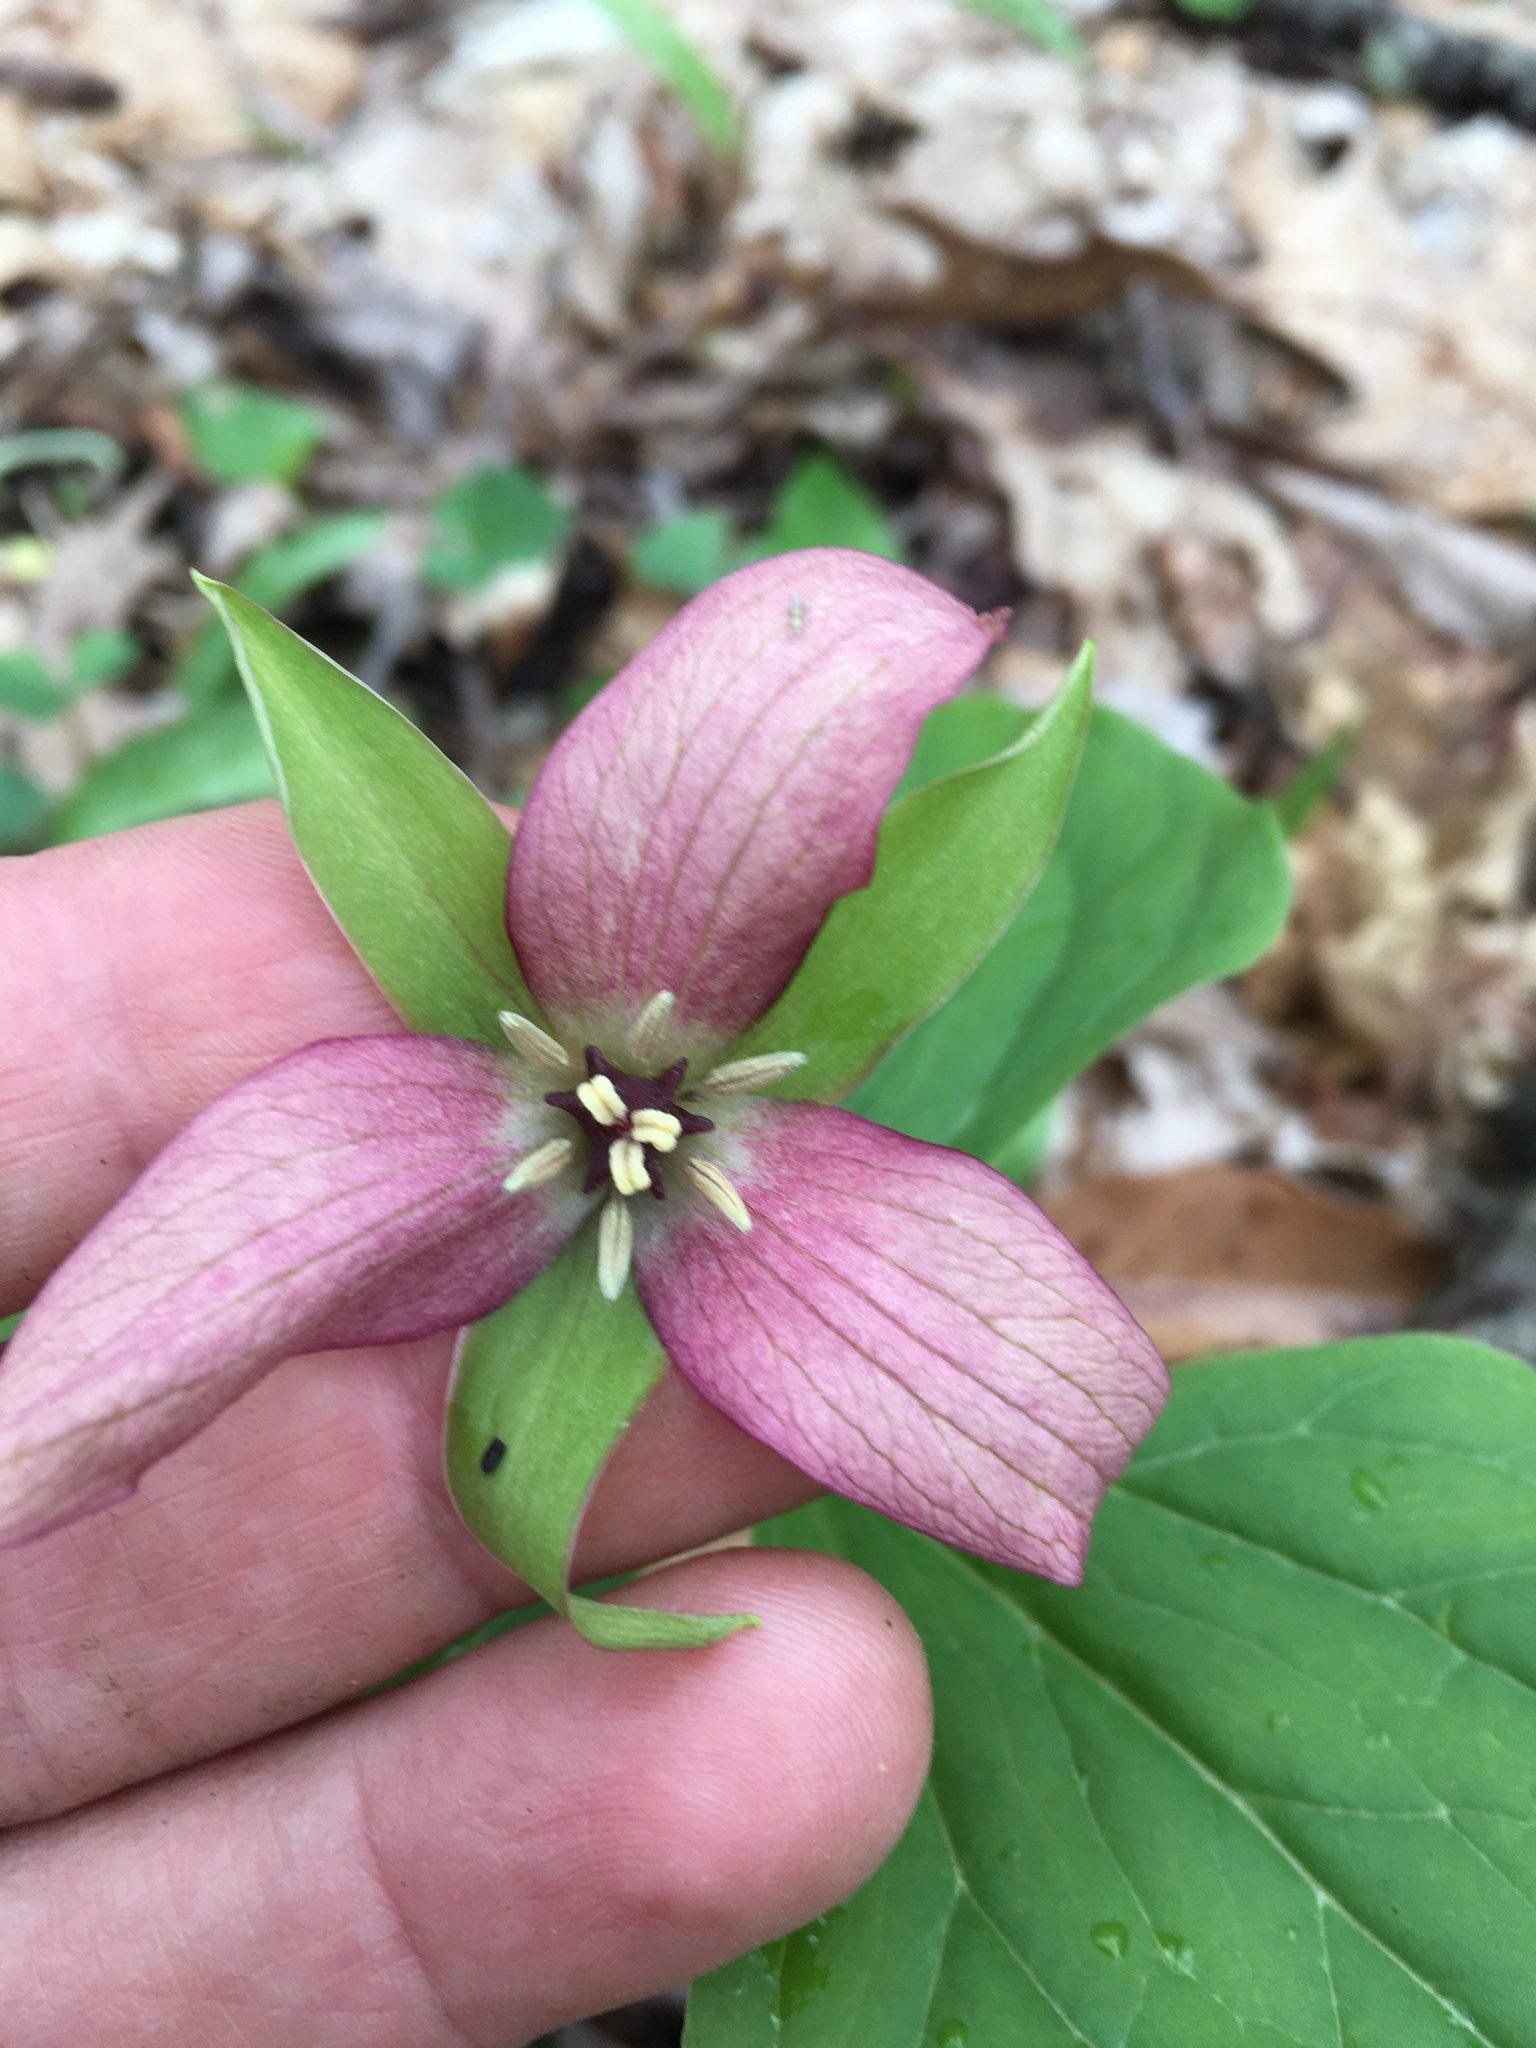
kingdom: Plantae
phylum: Tracheophyta
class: Liliopsida
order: Liliales
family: Melanthiaceae
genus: Trillium
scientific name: Trillium erectum
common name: Purple trillium
